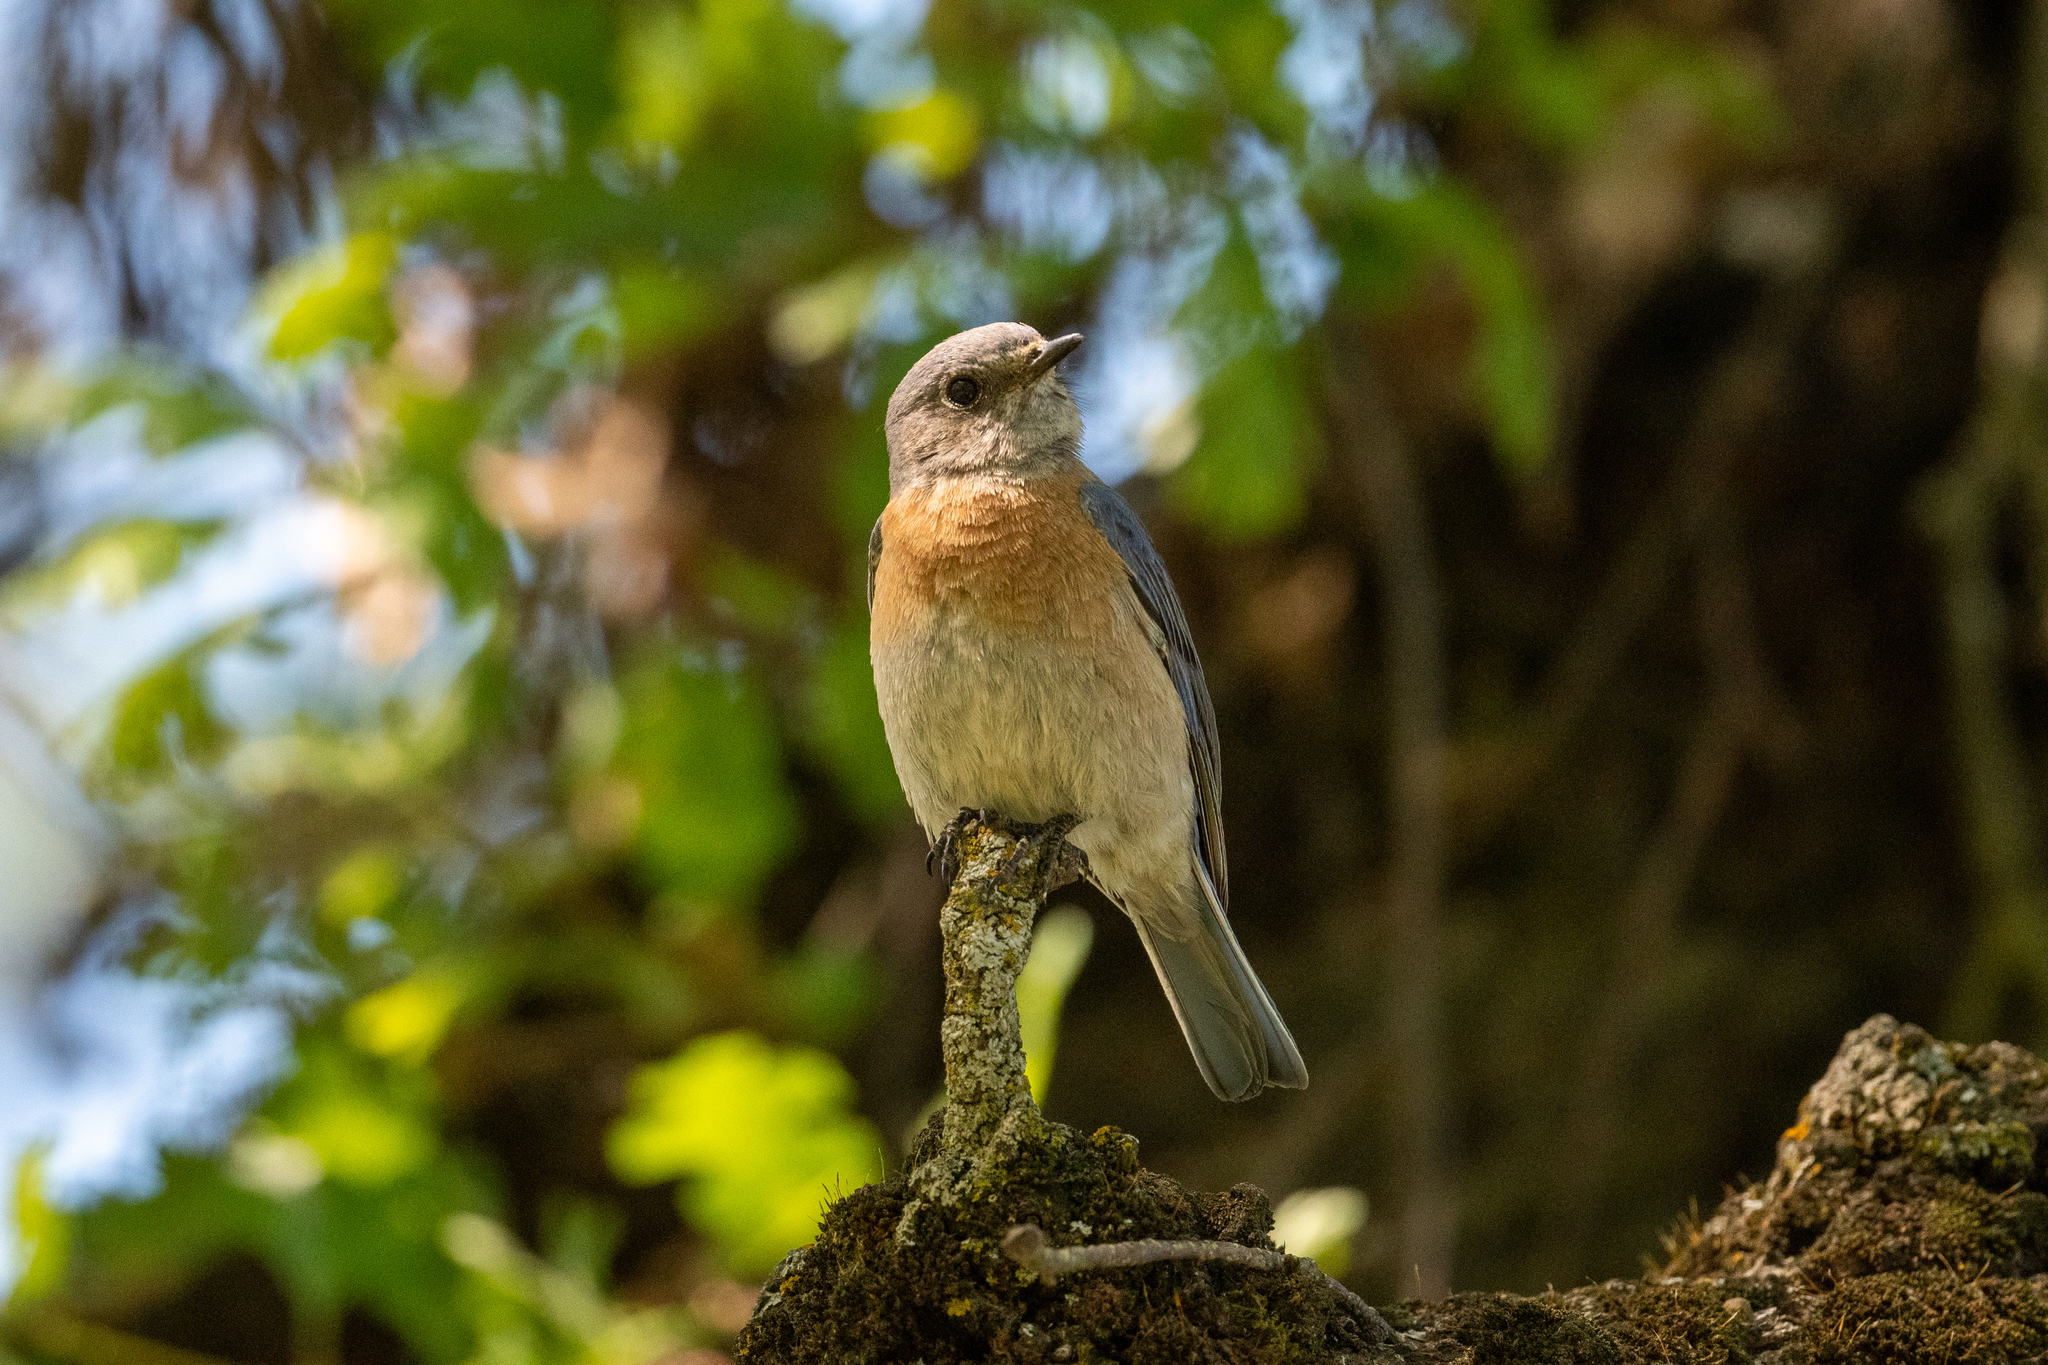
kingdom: Animalia
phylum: Chordata
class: Aves
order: Passeriformes
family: Turdidae
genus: Sialia
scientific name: Sialia mexicana
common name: Western bluebird
